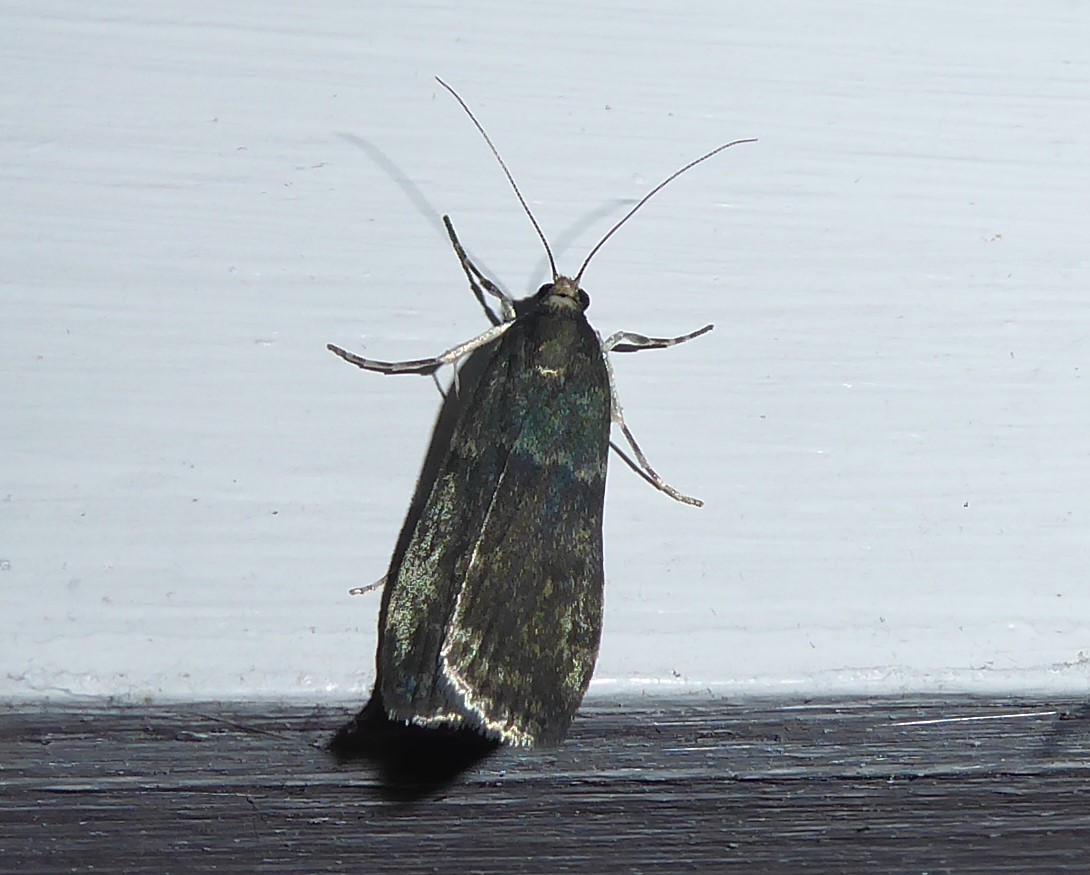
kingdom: Animalia
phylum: Arthropoda
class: Insecta
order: Lepidoptera
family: Crambidae
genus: Eudonia
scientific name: Eudonia cataxesta
